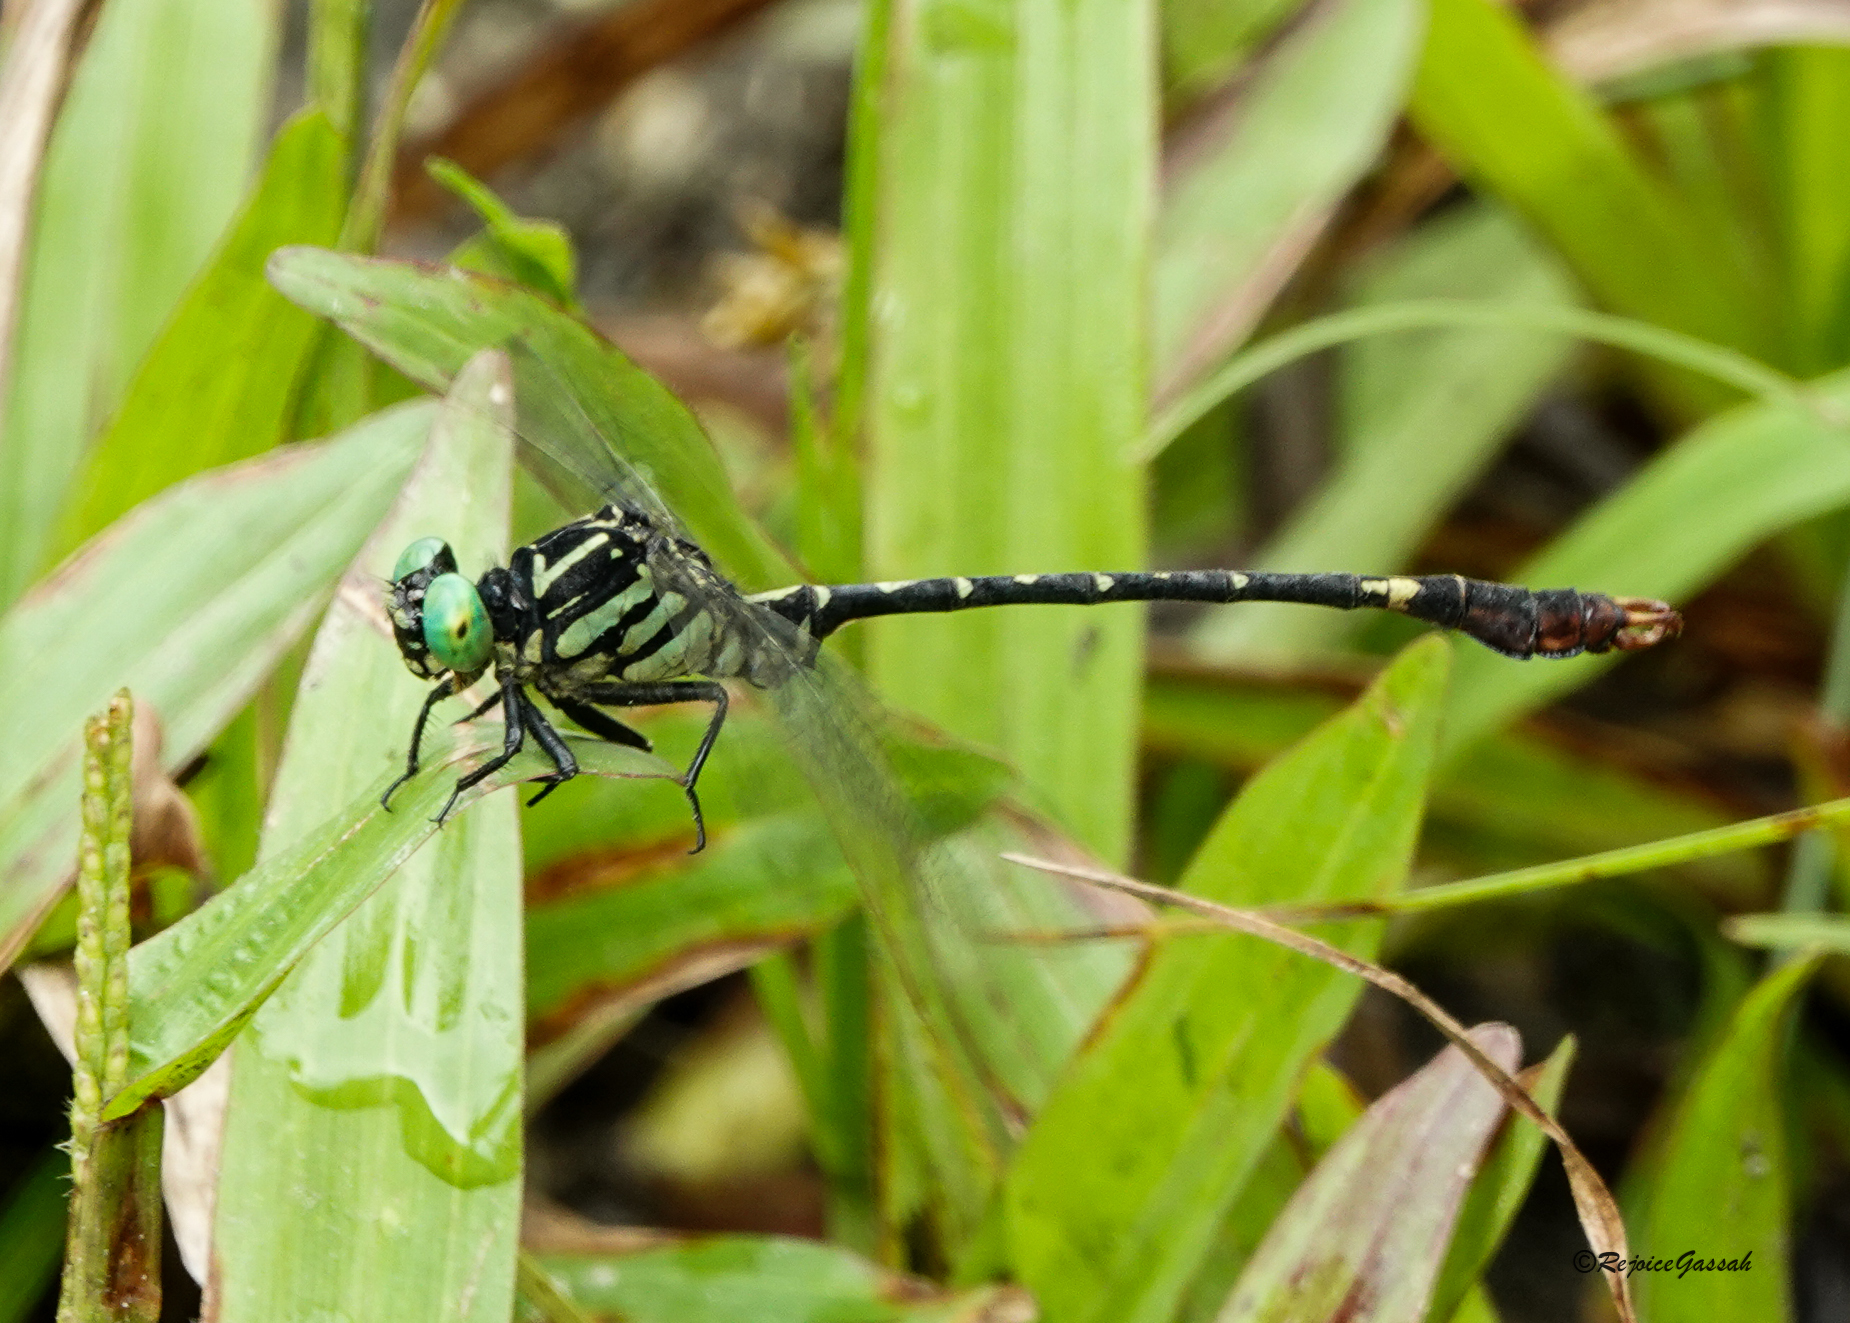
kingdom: Animalia
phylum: Arthropoda
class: Insecta
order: Odonata
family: Gomphidae
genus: Scalmogomphus
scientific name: Scalmogomphus bistrigatus
